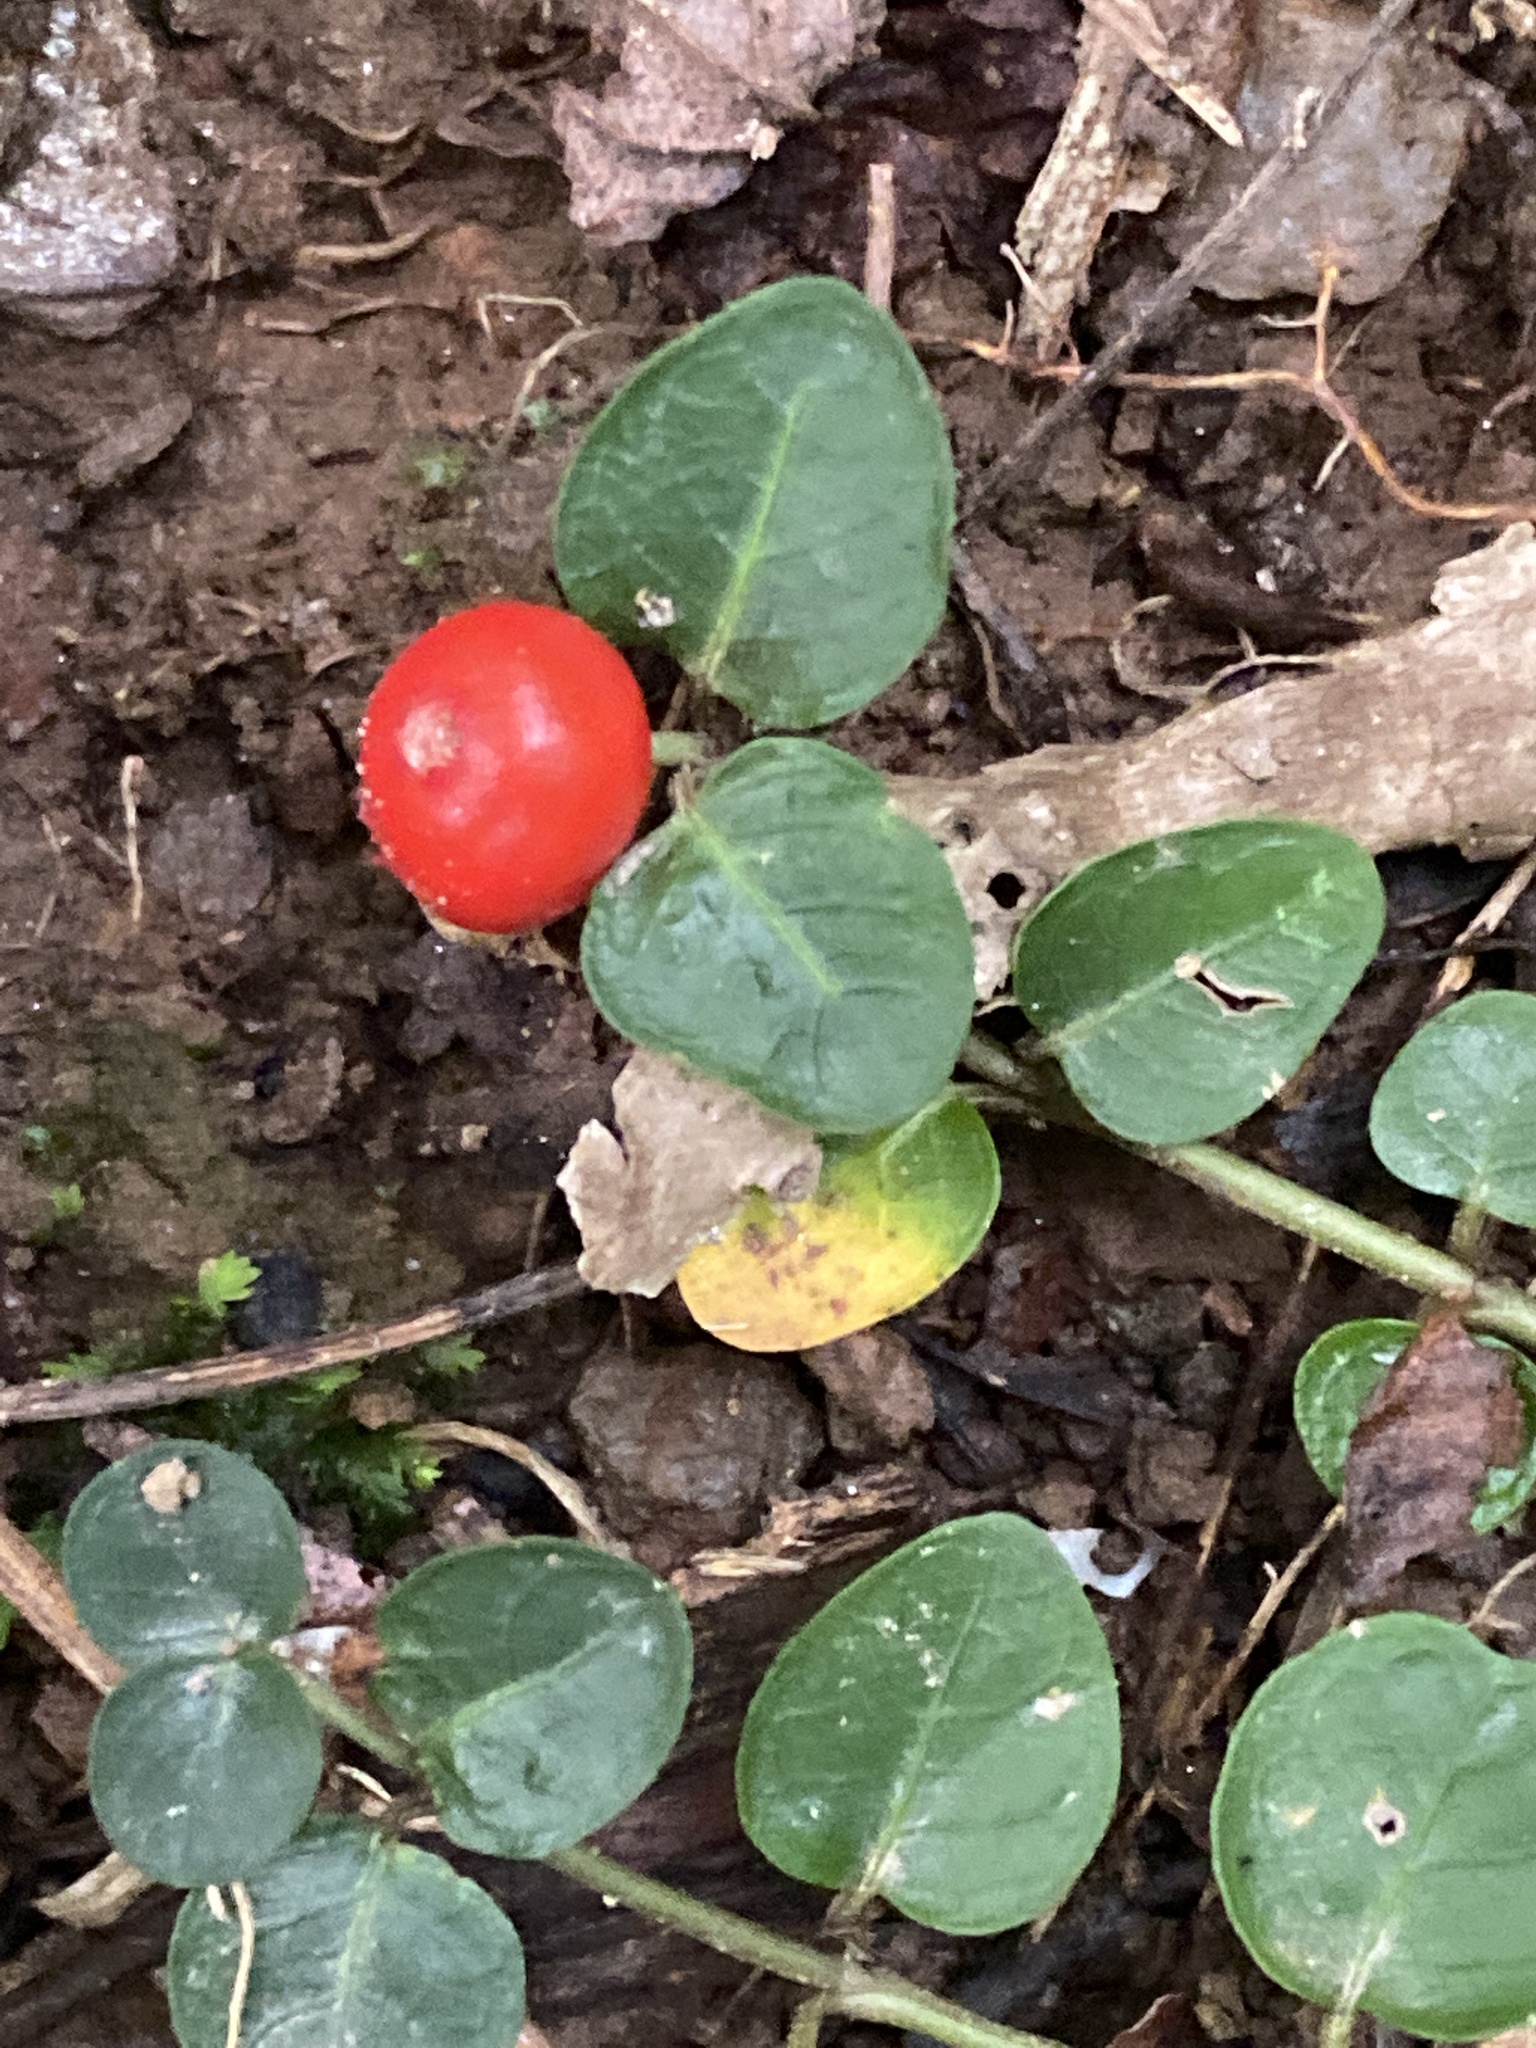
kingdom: Plantae
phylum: Tracheophyta
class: Magnoliopsida
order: Gentianales
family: Rubiaceae
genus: Mitchella
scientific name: Mitchella repens
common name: Partridge-berry
